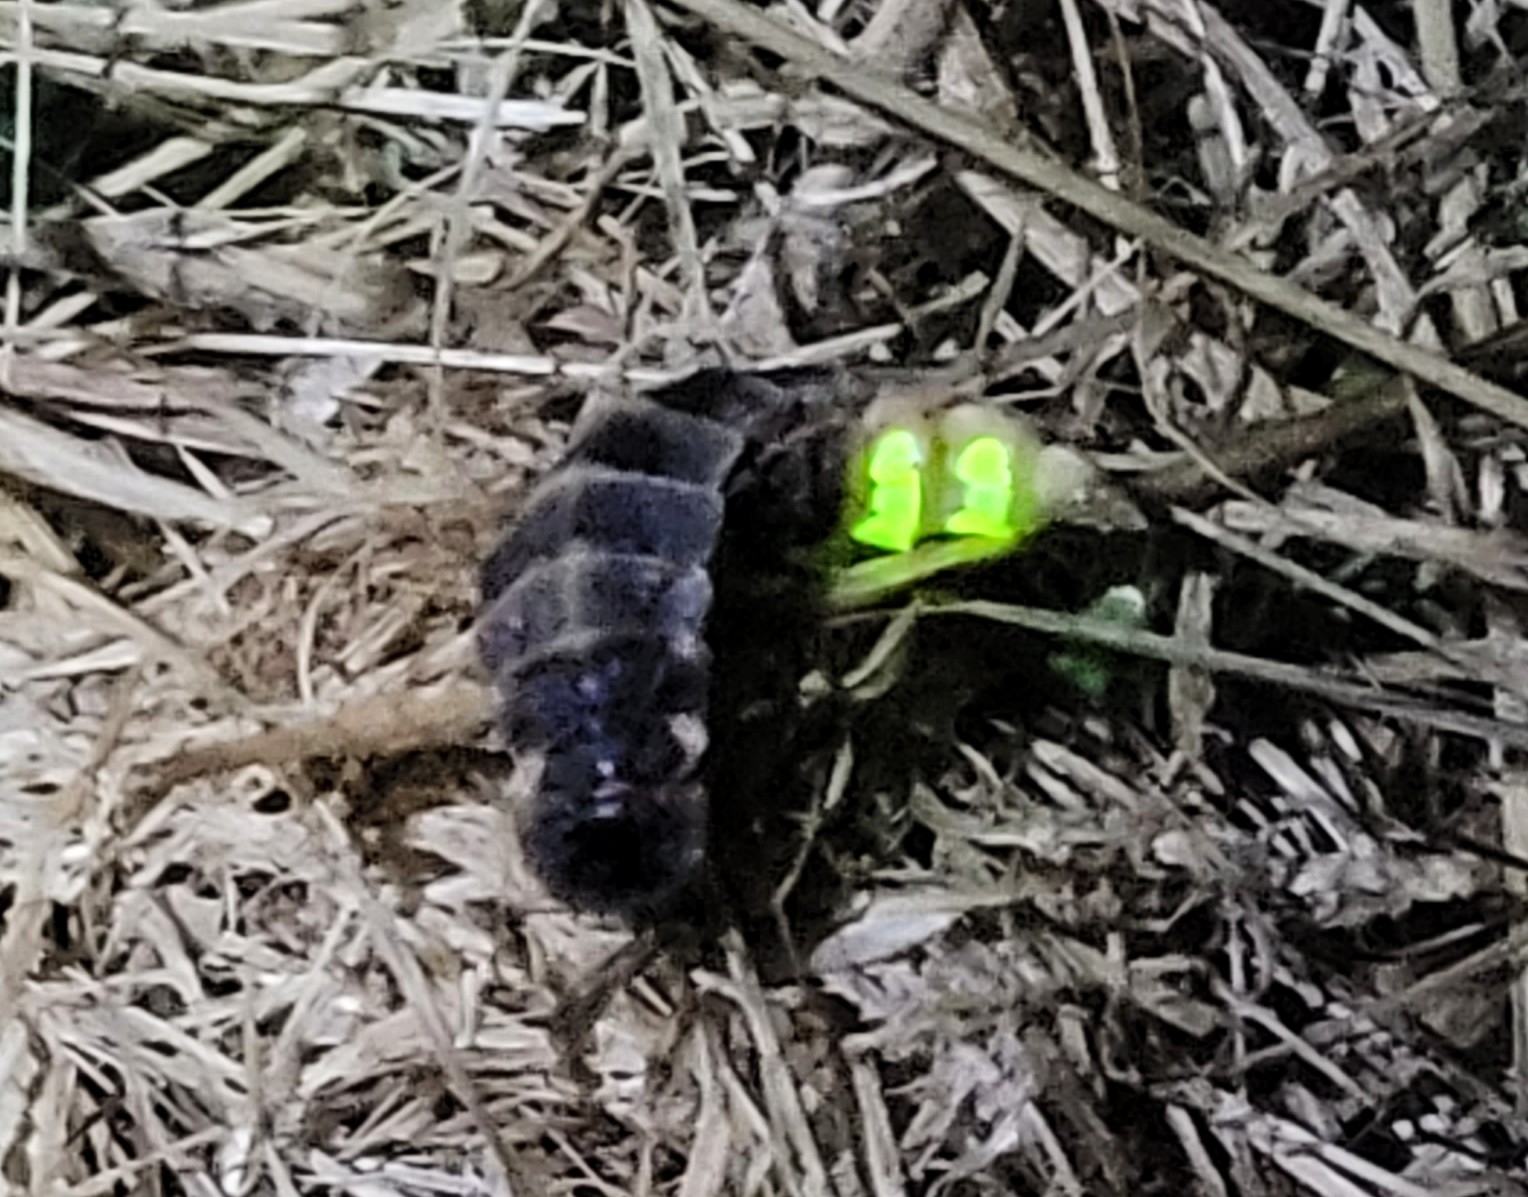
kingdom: Animalia
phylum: Arthropoda
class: Insecta
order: Coleoptera
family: Lampyridae
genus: Lampyris
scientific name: Lampyris noctiluca
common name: Glow-worm
